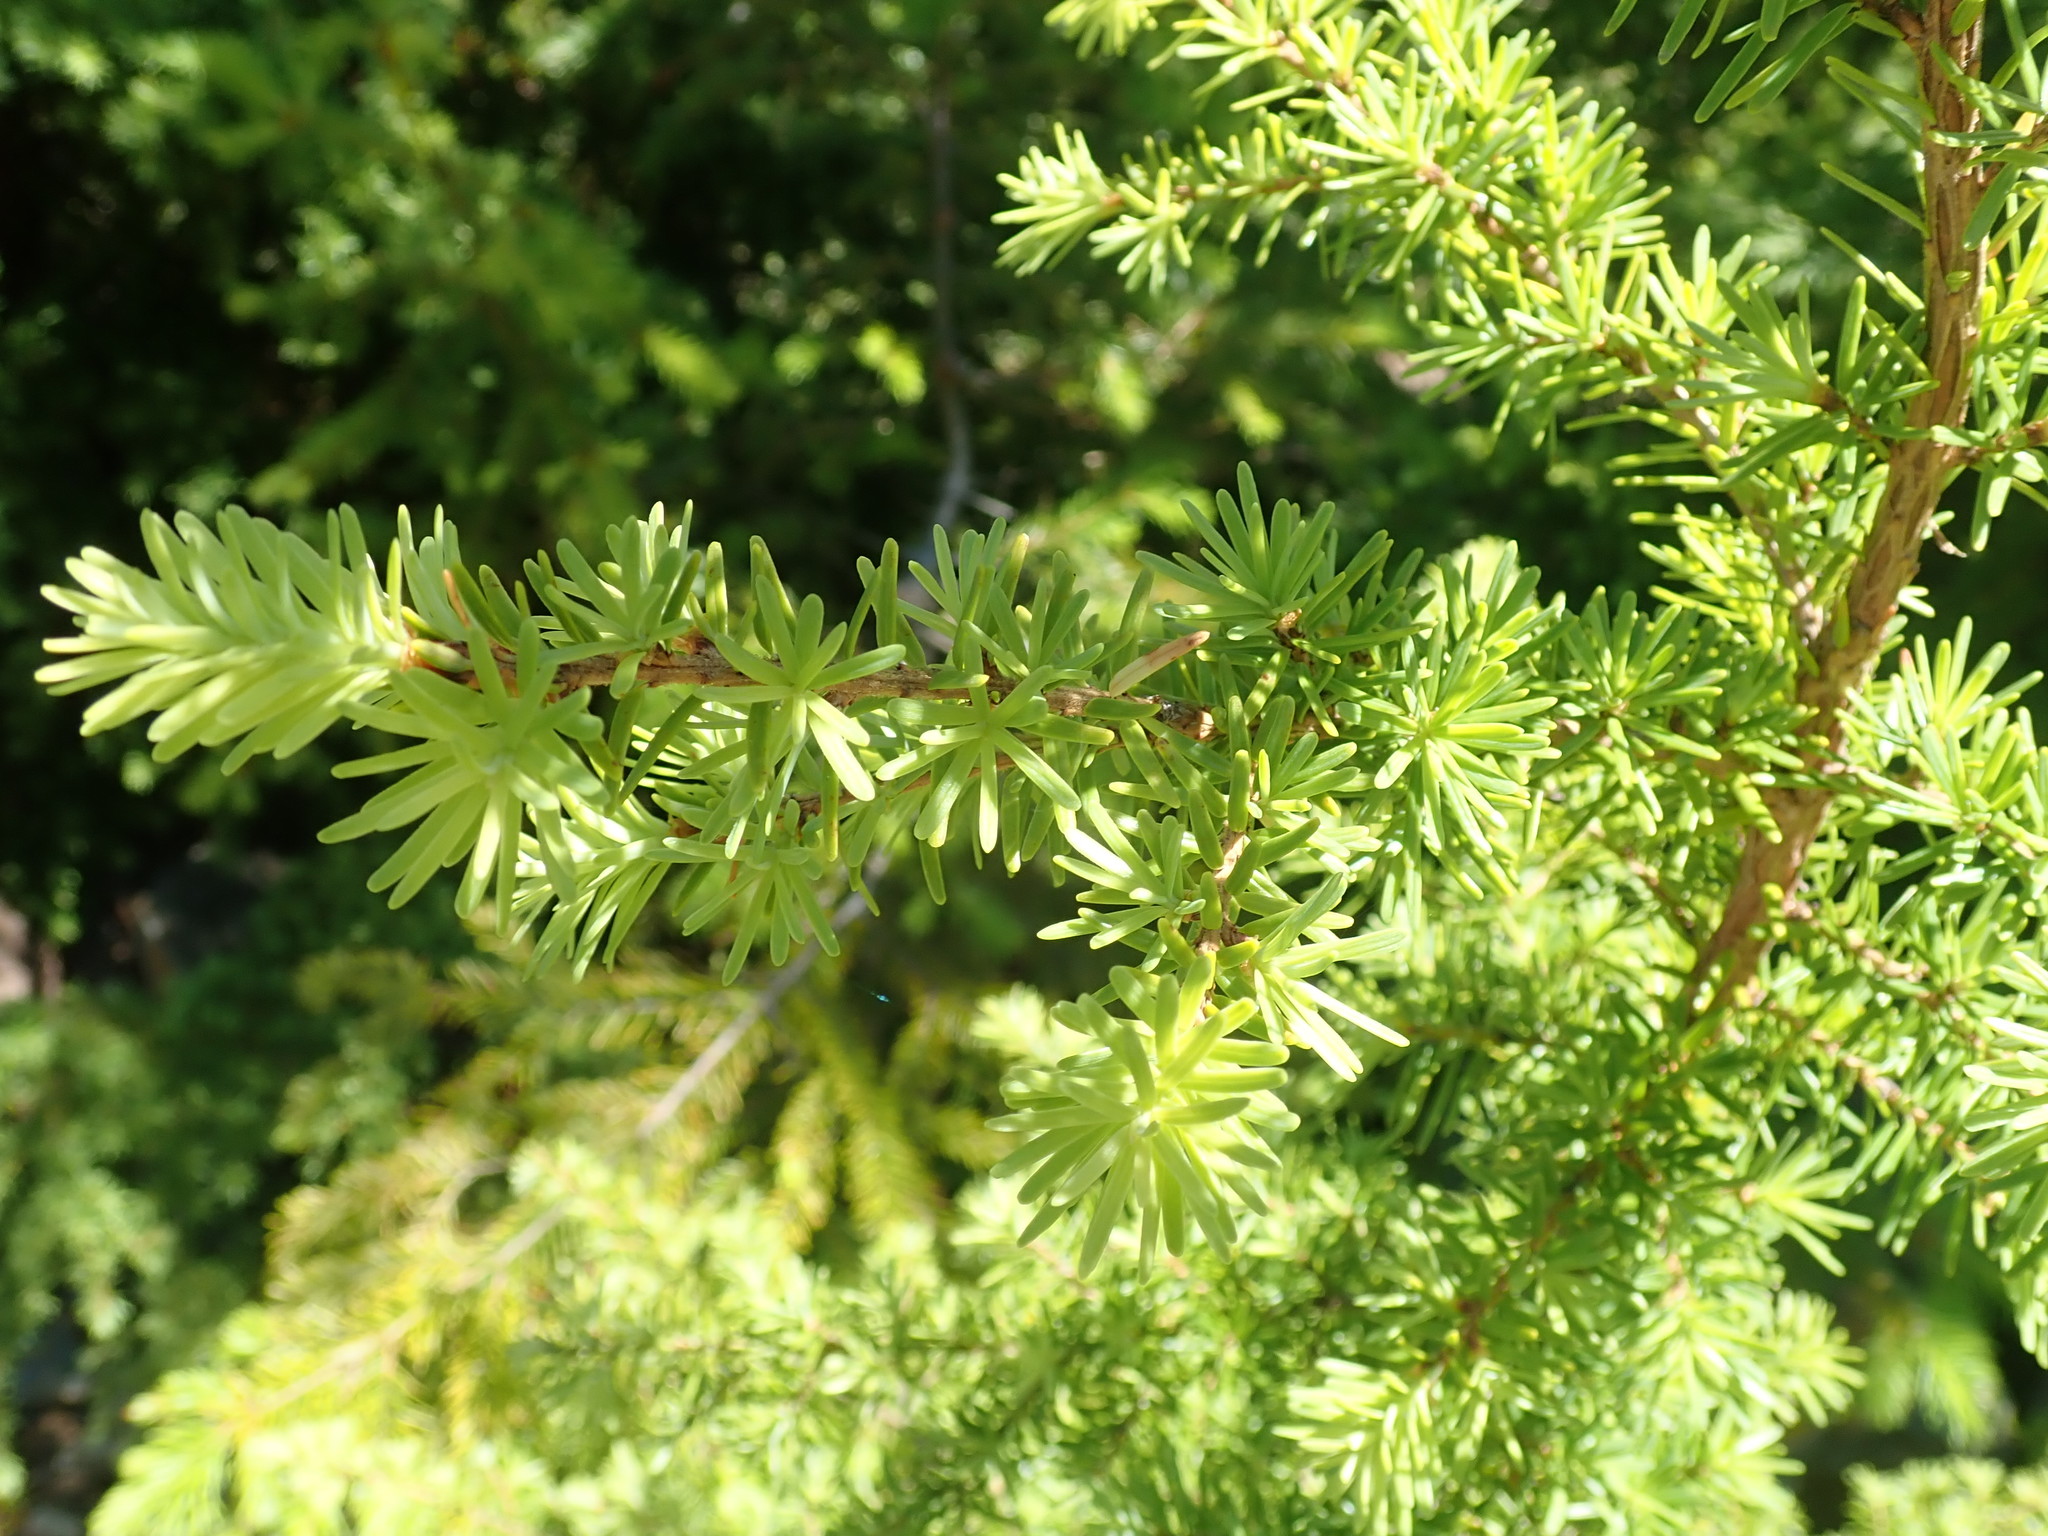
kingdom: Plantae
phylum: Tracheophyta
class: Pinopsida
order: Pinales
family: Pinaceae
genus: Tsuga
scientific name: Tsuga mertensiana
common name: Mountain hemlock
